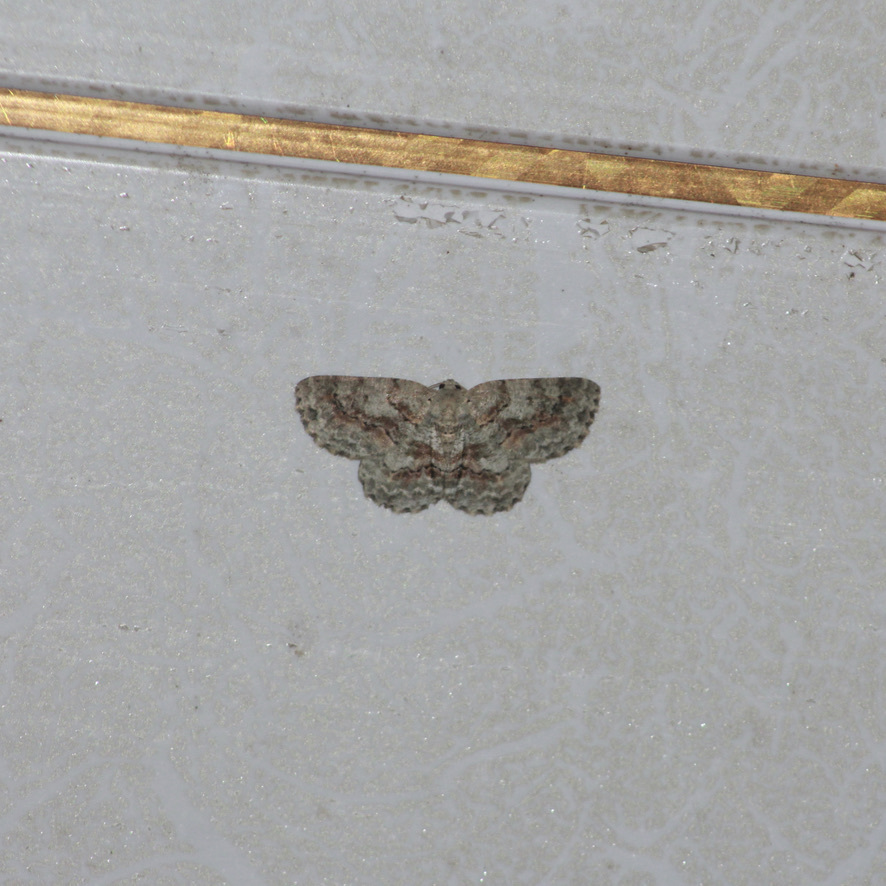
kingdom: Animalia
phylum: Arthropoda
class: Insecta
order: Lepidoptera
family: Geometridae
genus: Bryoptera
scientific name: Bryoptera hypomelas
